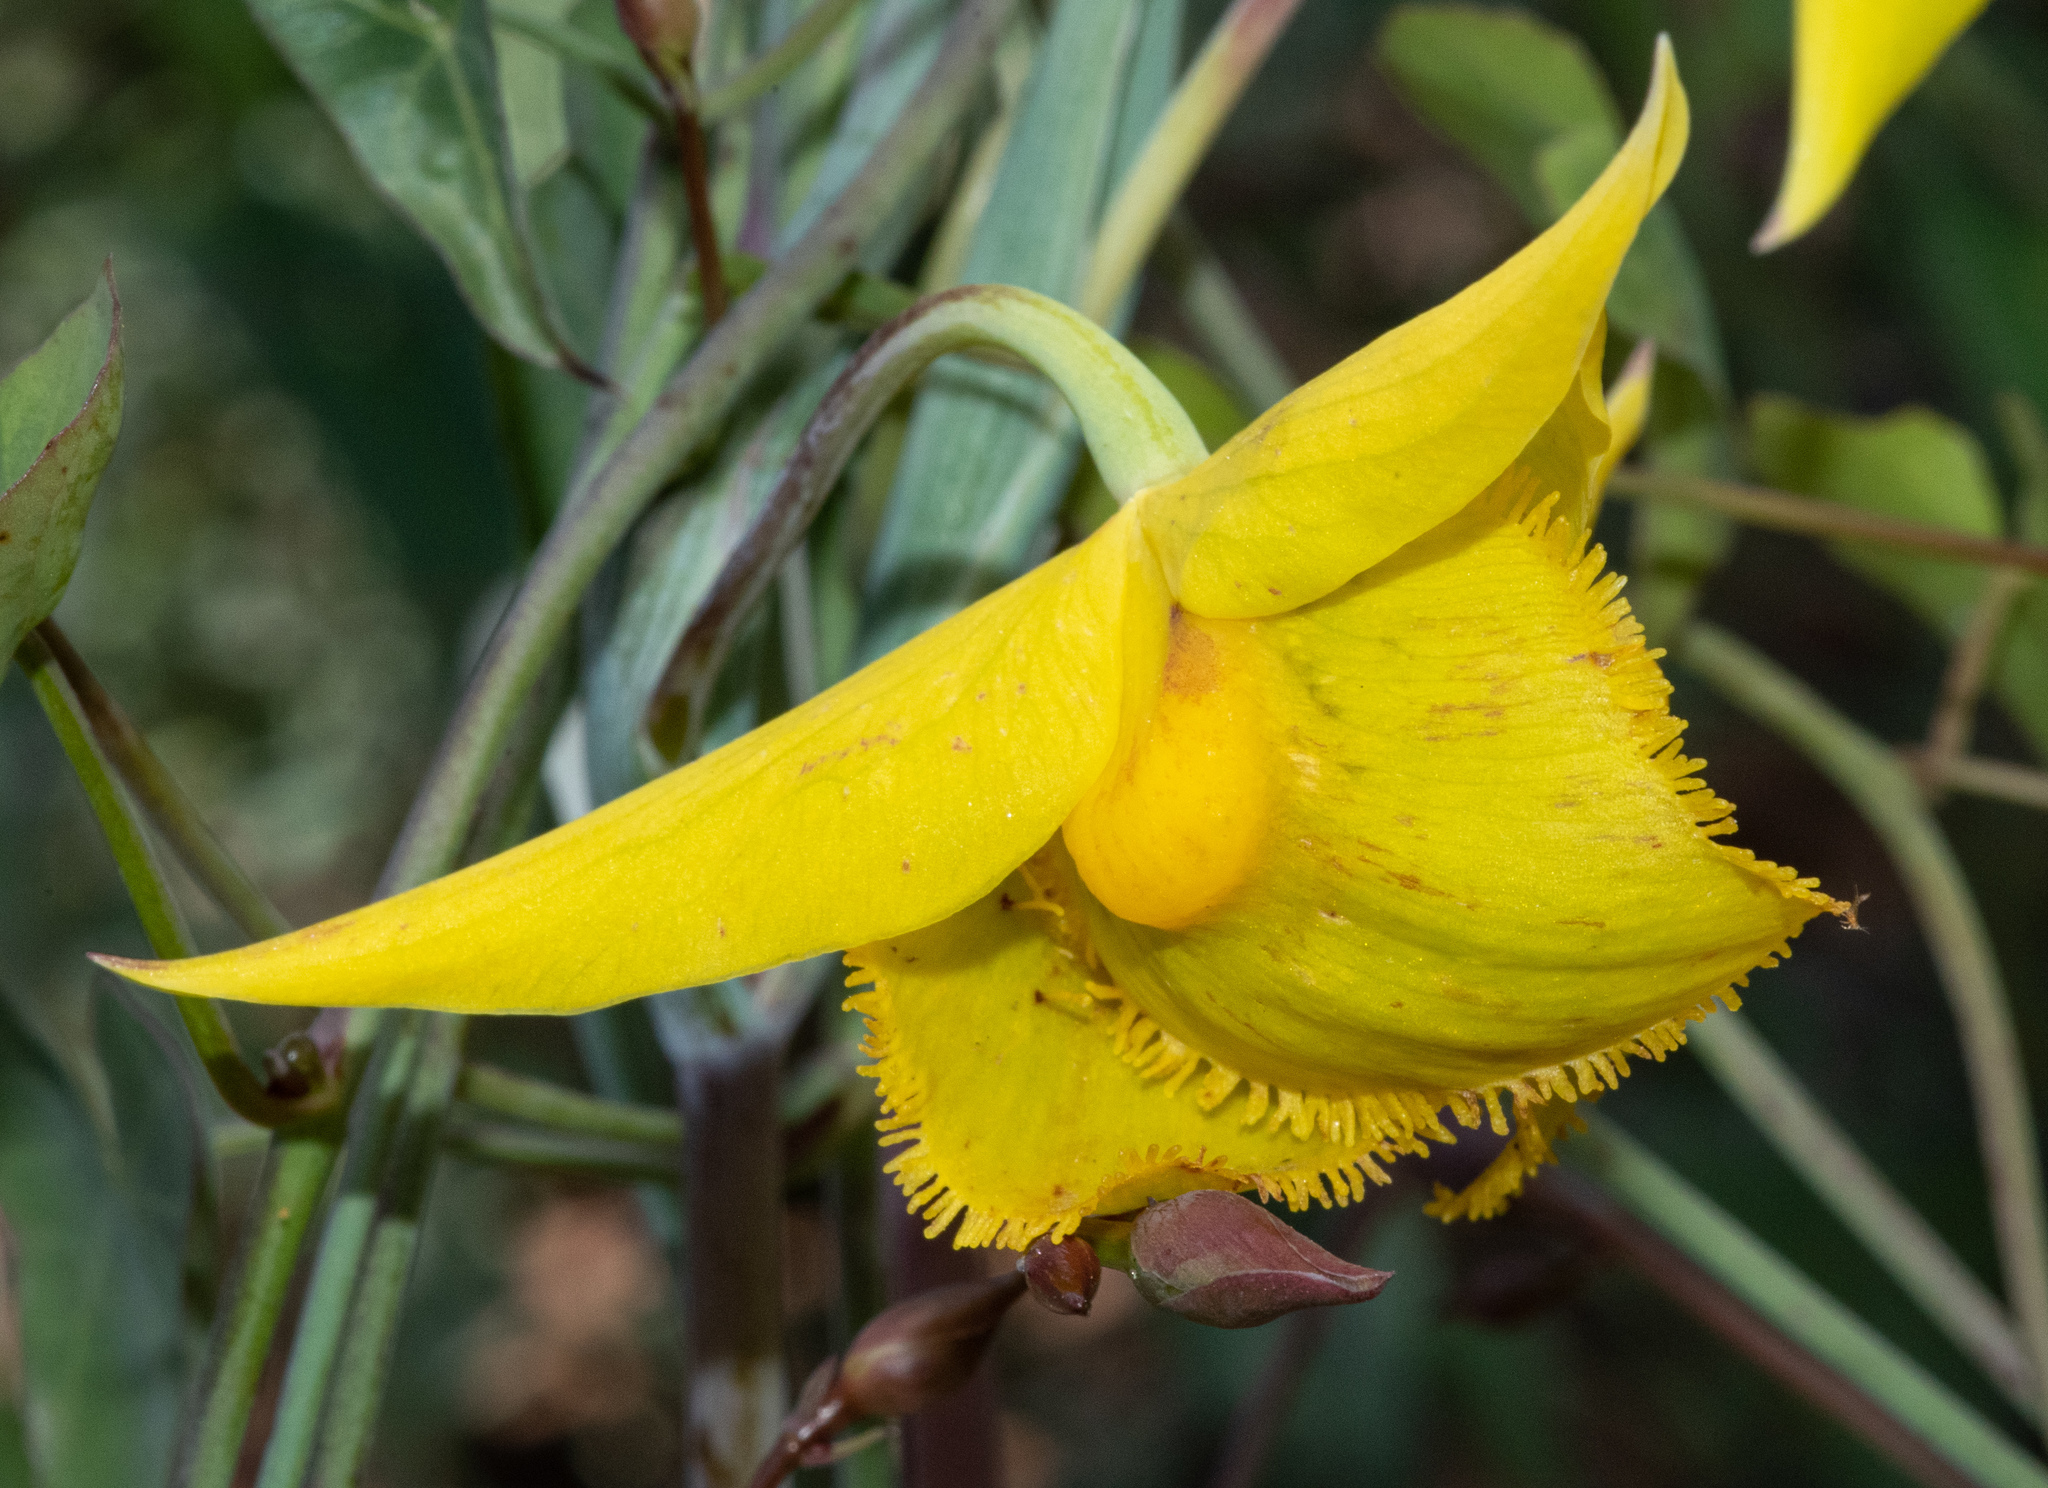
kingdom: Plantae
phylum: Tracheophyta
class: Liliopsida
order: Liliales
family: Liliaceae
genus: Calochortus
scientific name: Calochortus amabilis
